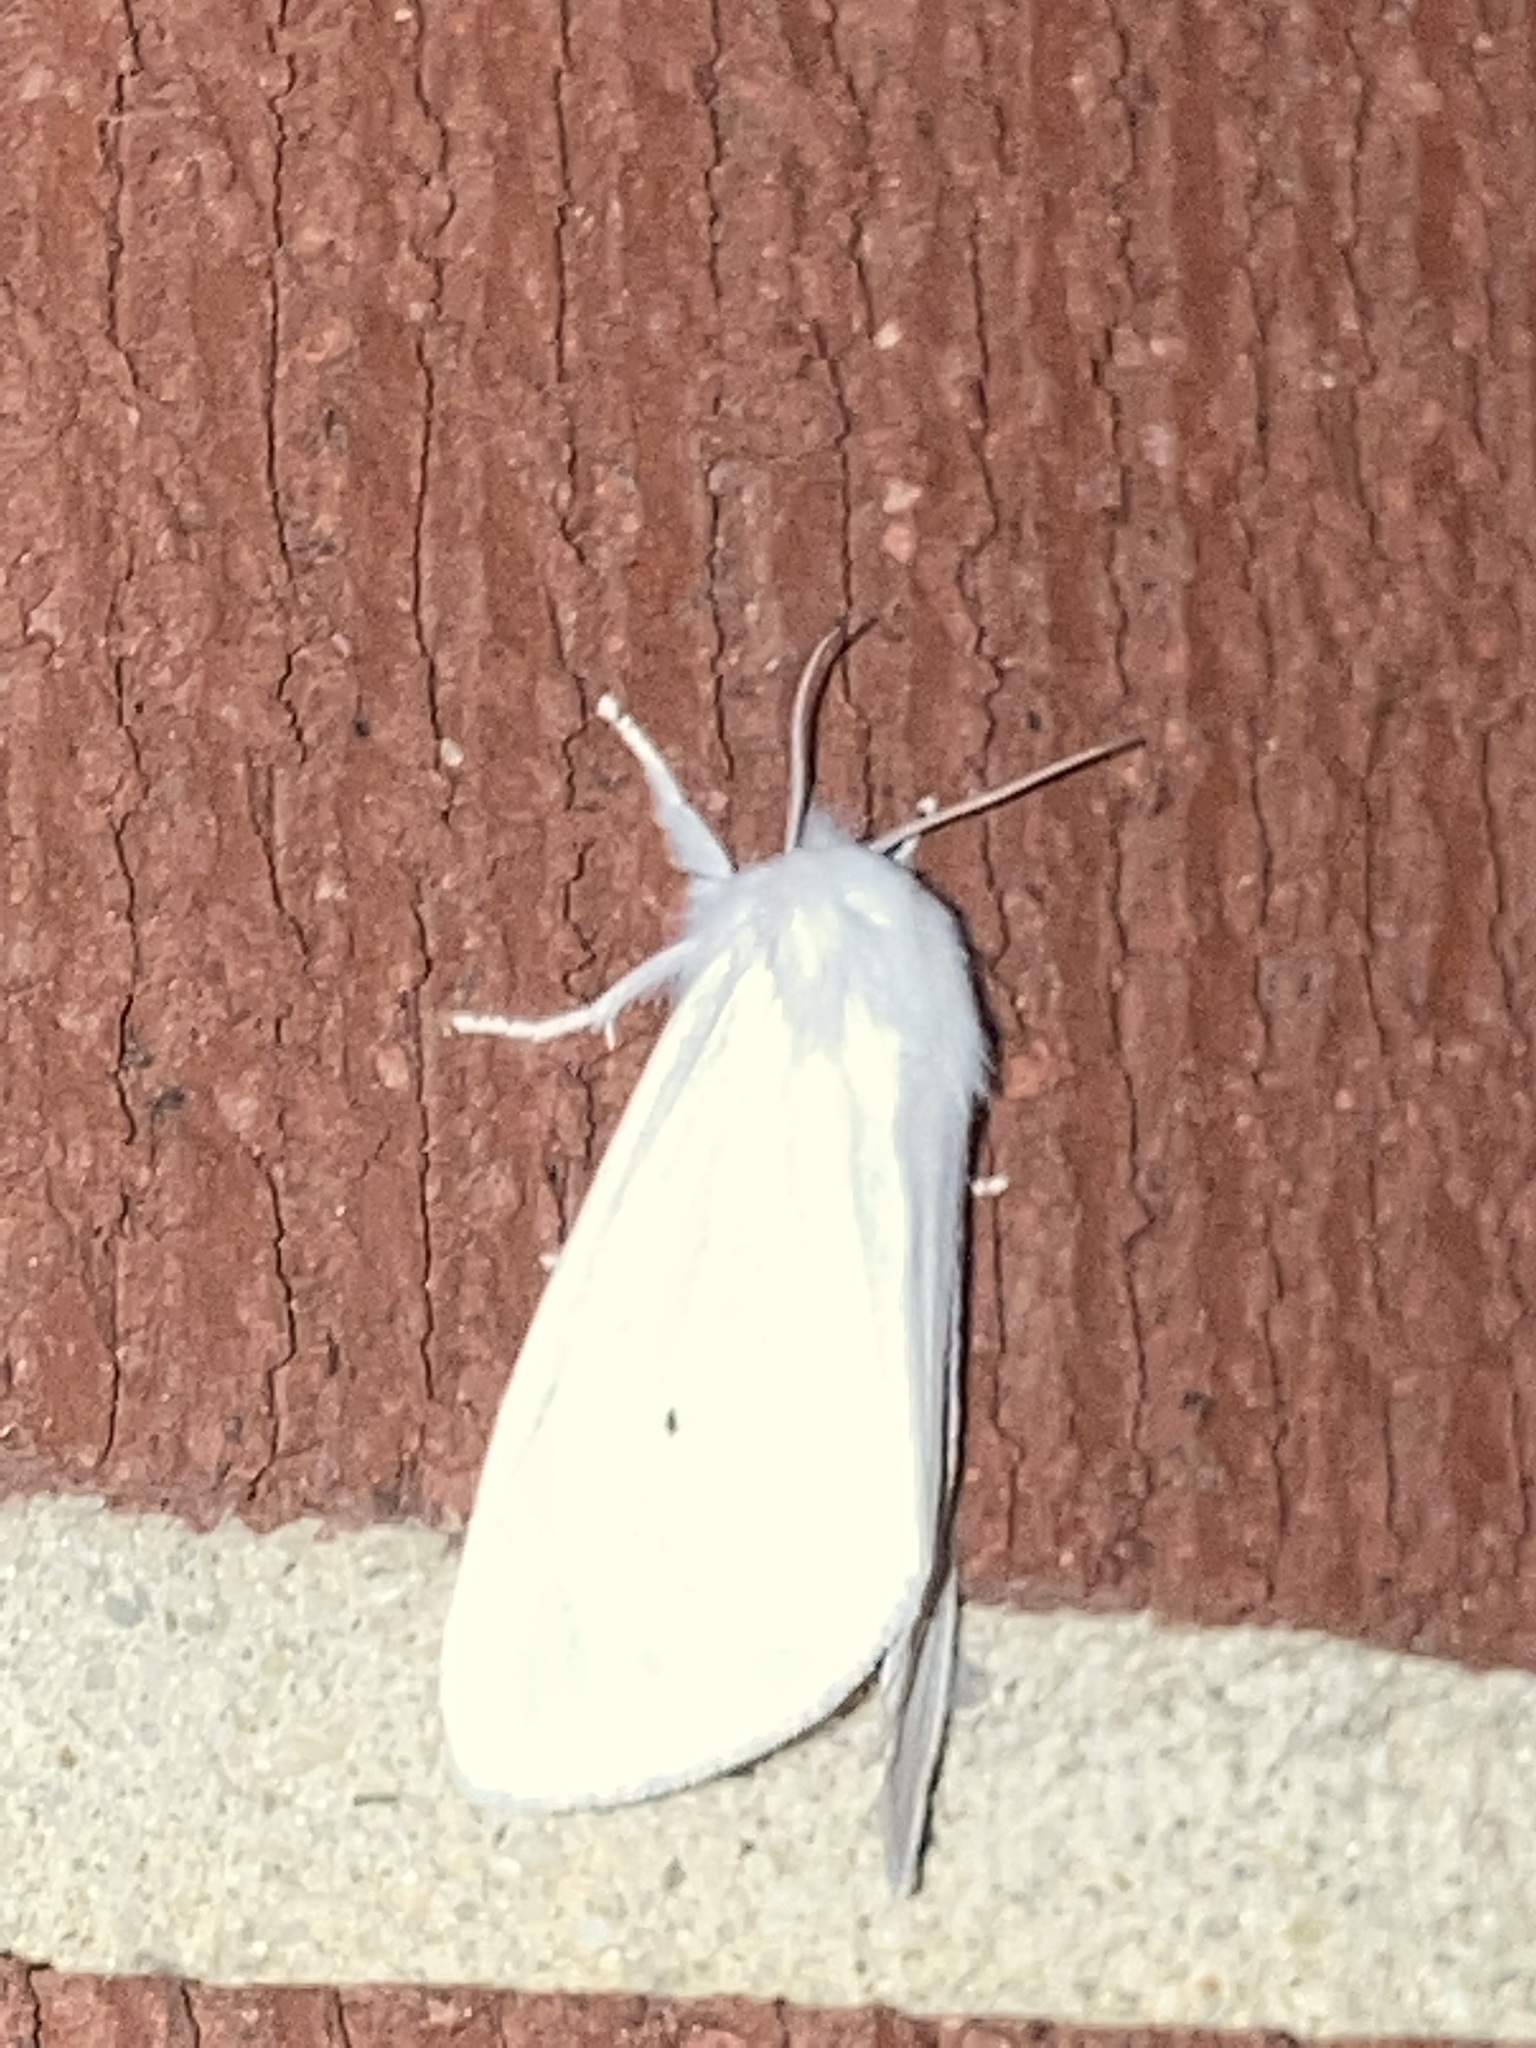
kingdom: Animalia
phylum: Arthropoda
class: Insecta
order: Lepidoptera
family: Erebidae
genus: Spilosoma
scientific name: Spilosoma virginica
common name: Virginia tiger moth
